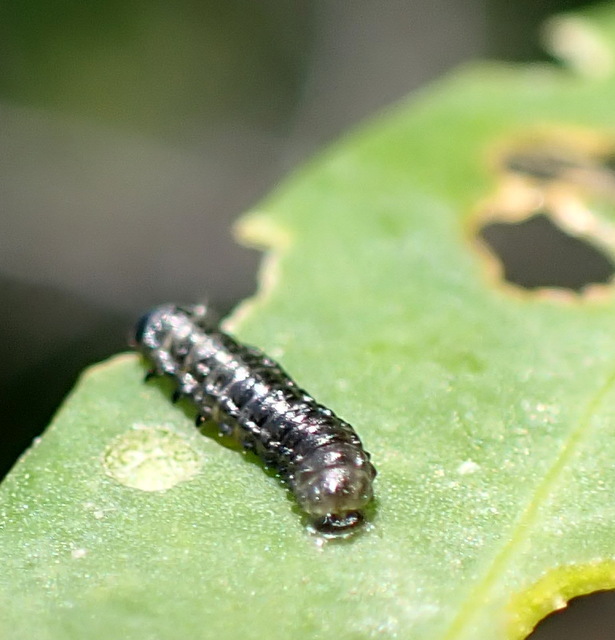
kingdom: Animalia
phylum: Arthropoda
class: Insecta
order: Coleoptera
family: Chrysomelidae
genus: Agasicles
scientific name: Agasicles hygrophila
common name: Alligatorweed flea beetle
